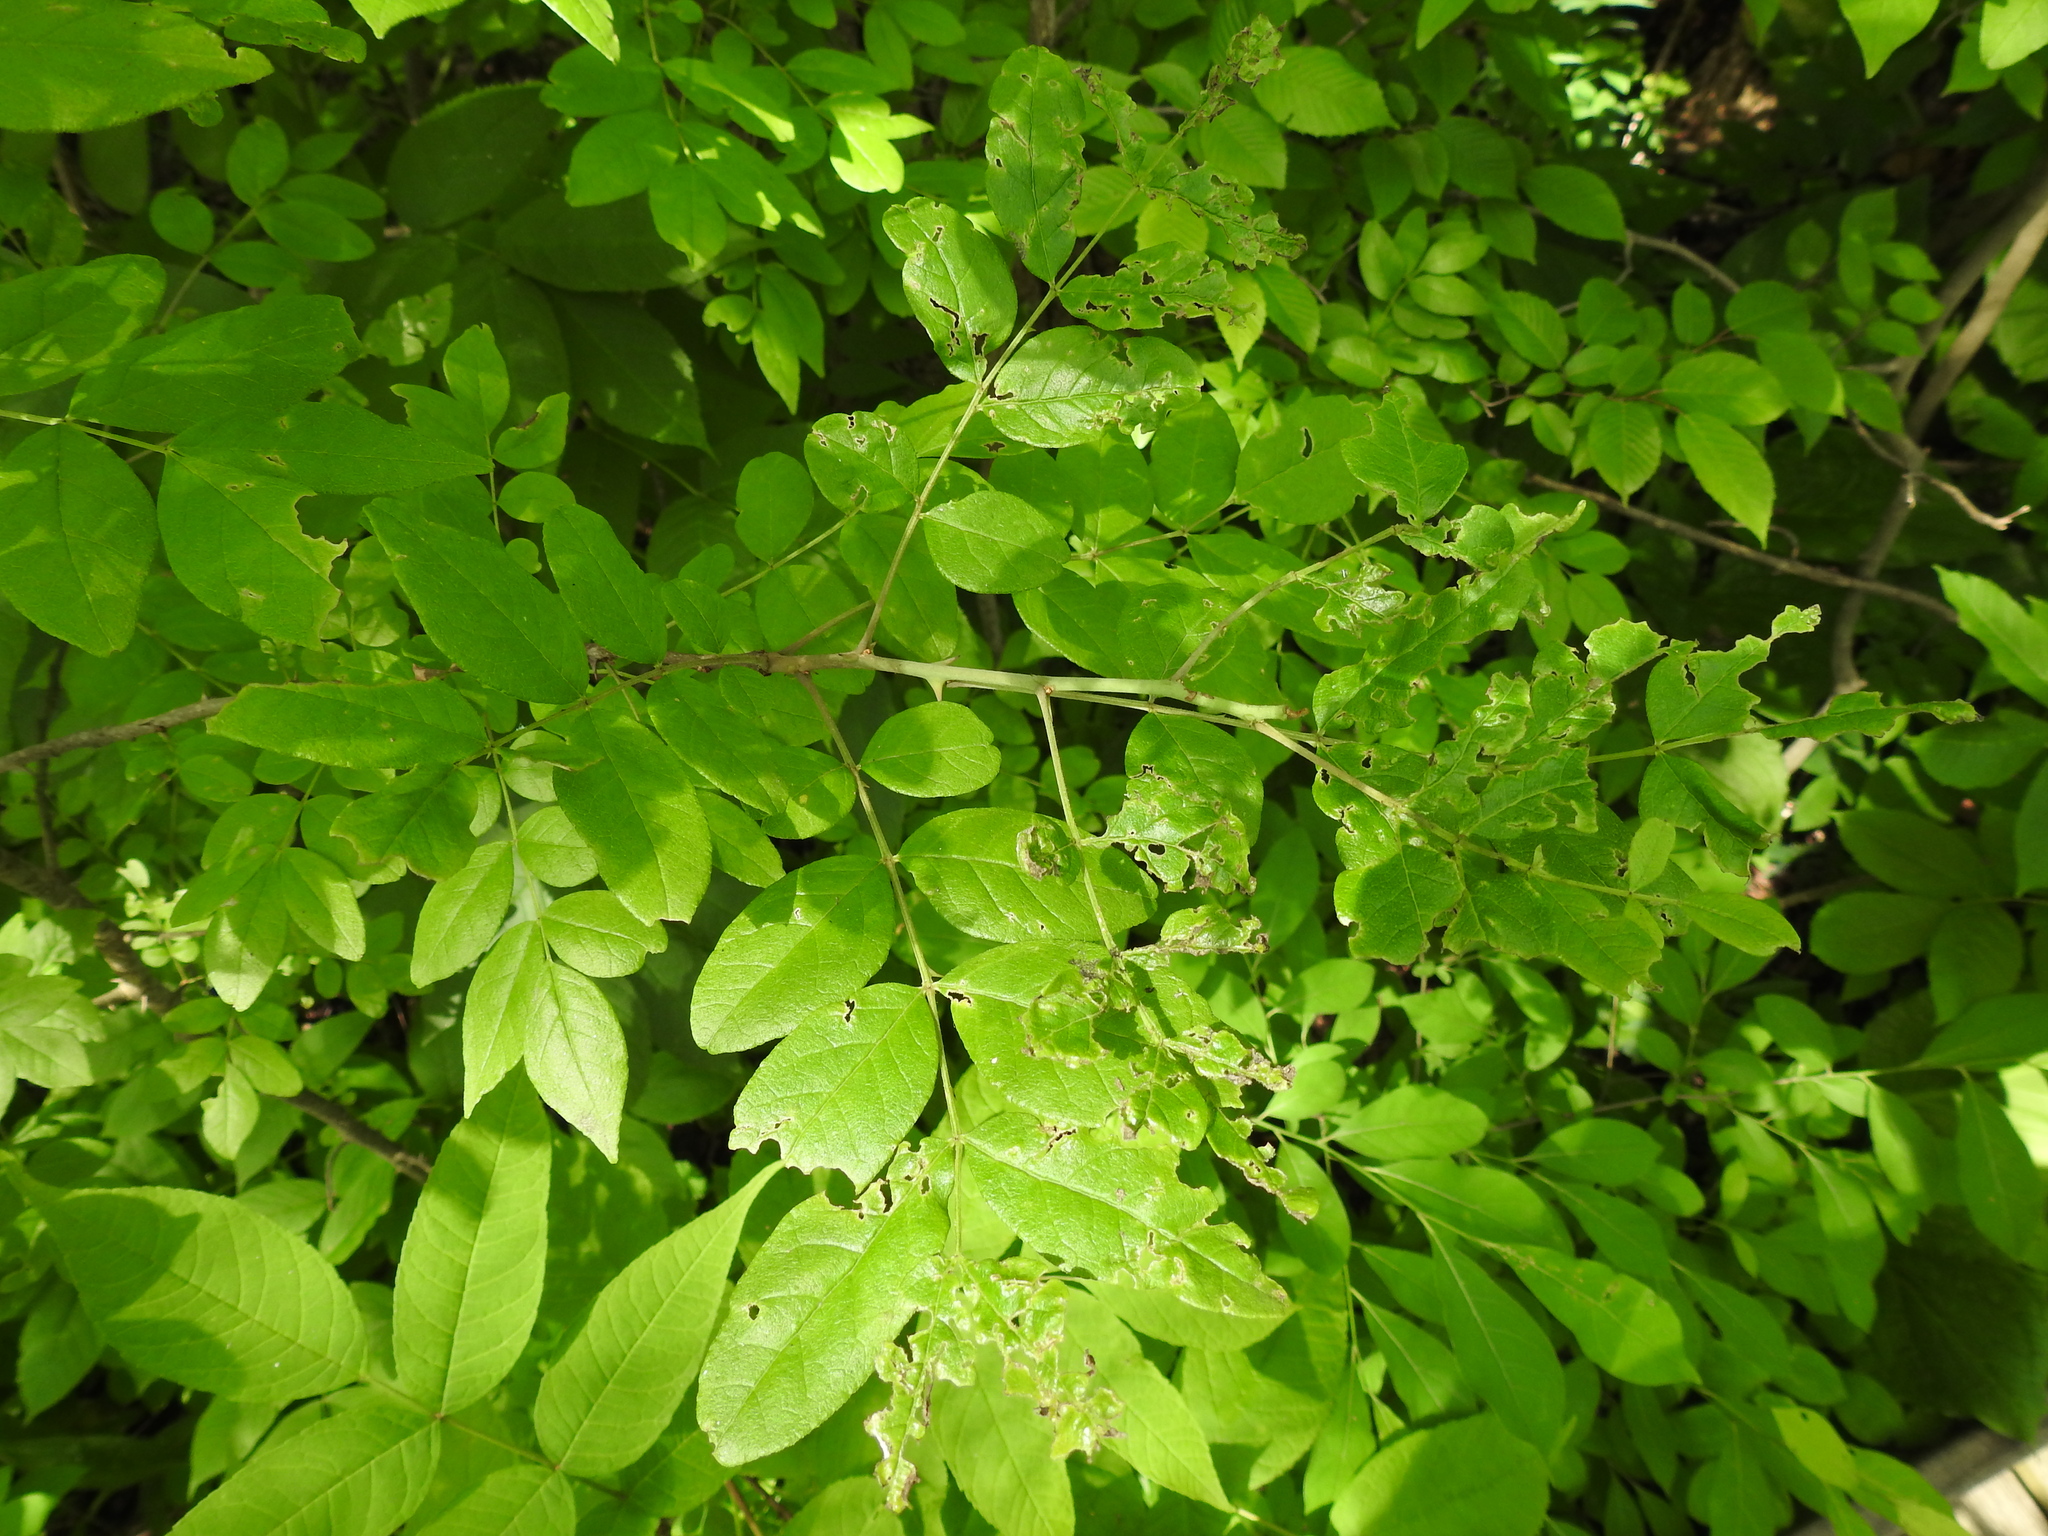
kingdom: Plantae
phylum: Tracheophyta
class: Magnoliopsida
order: Sapindales
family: Rutaceae
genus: Zanthoxylum
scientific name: Zanthoxylum americanum
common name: Northern prickly-ash
